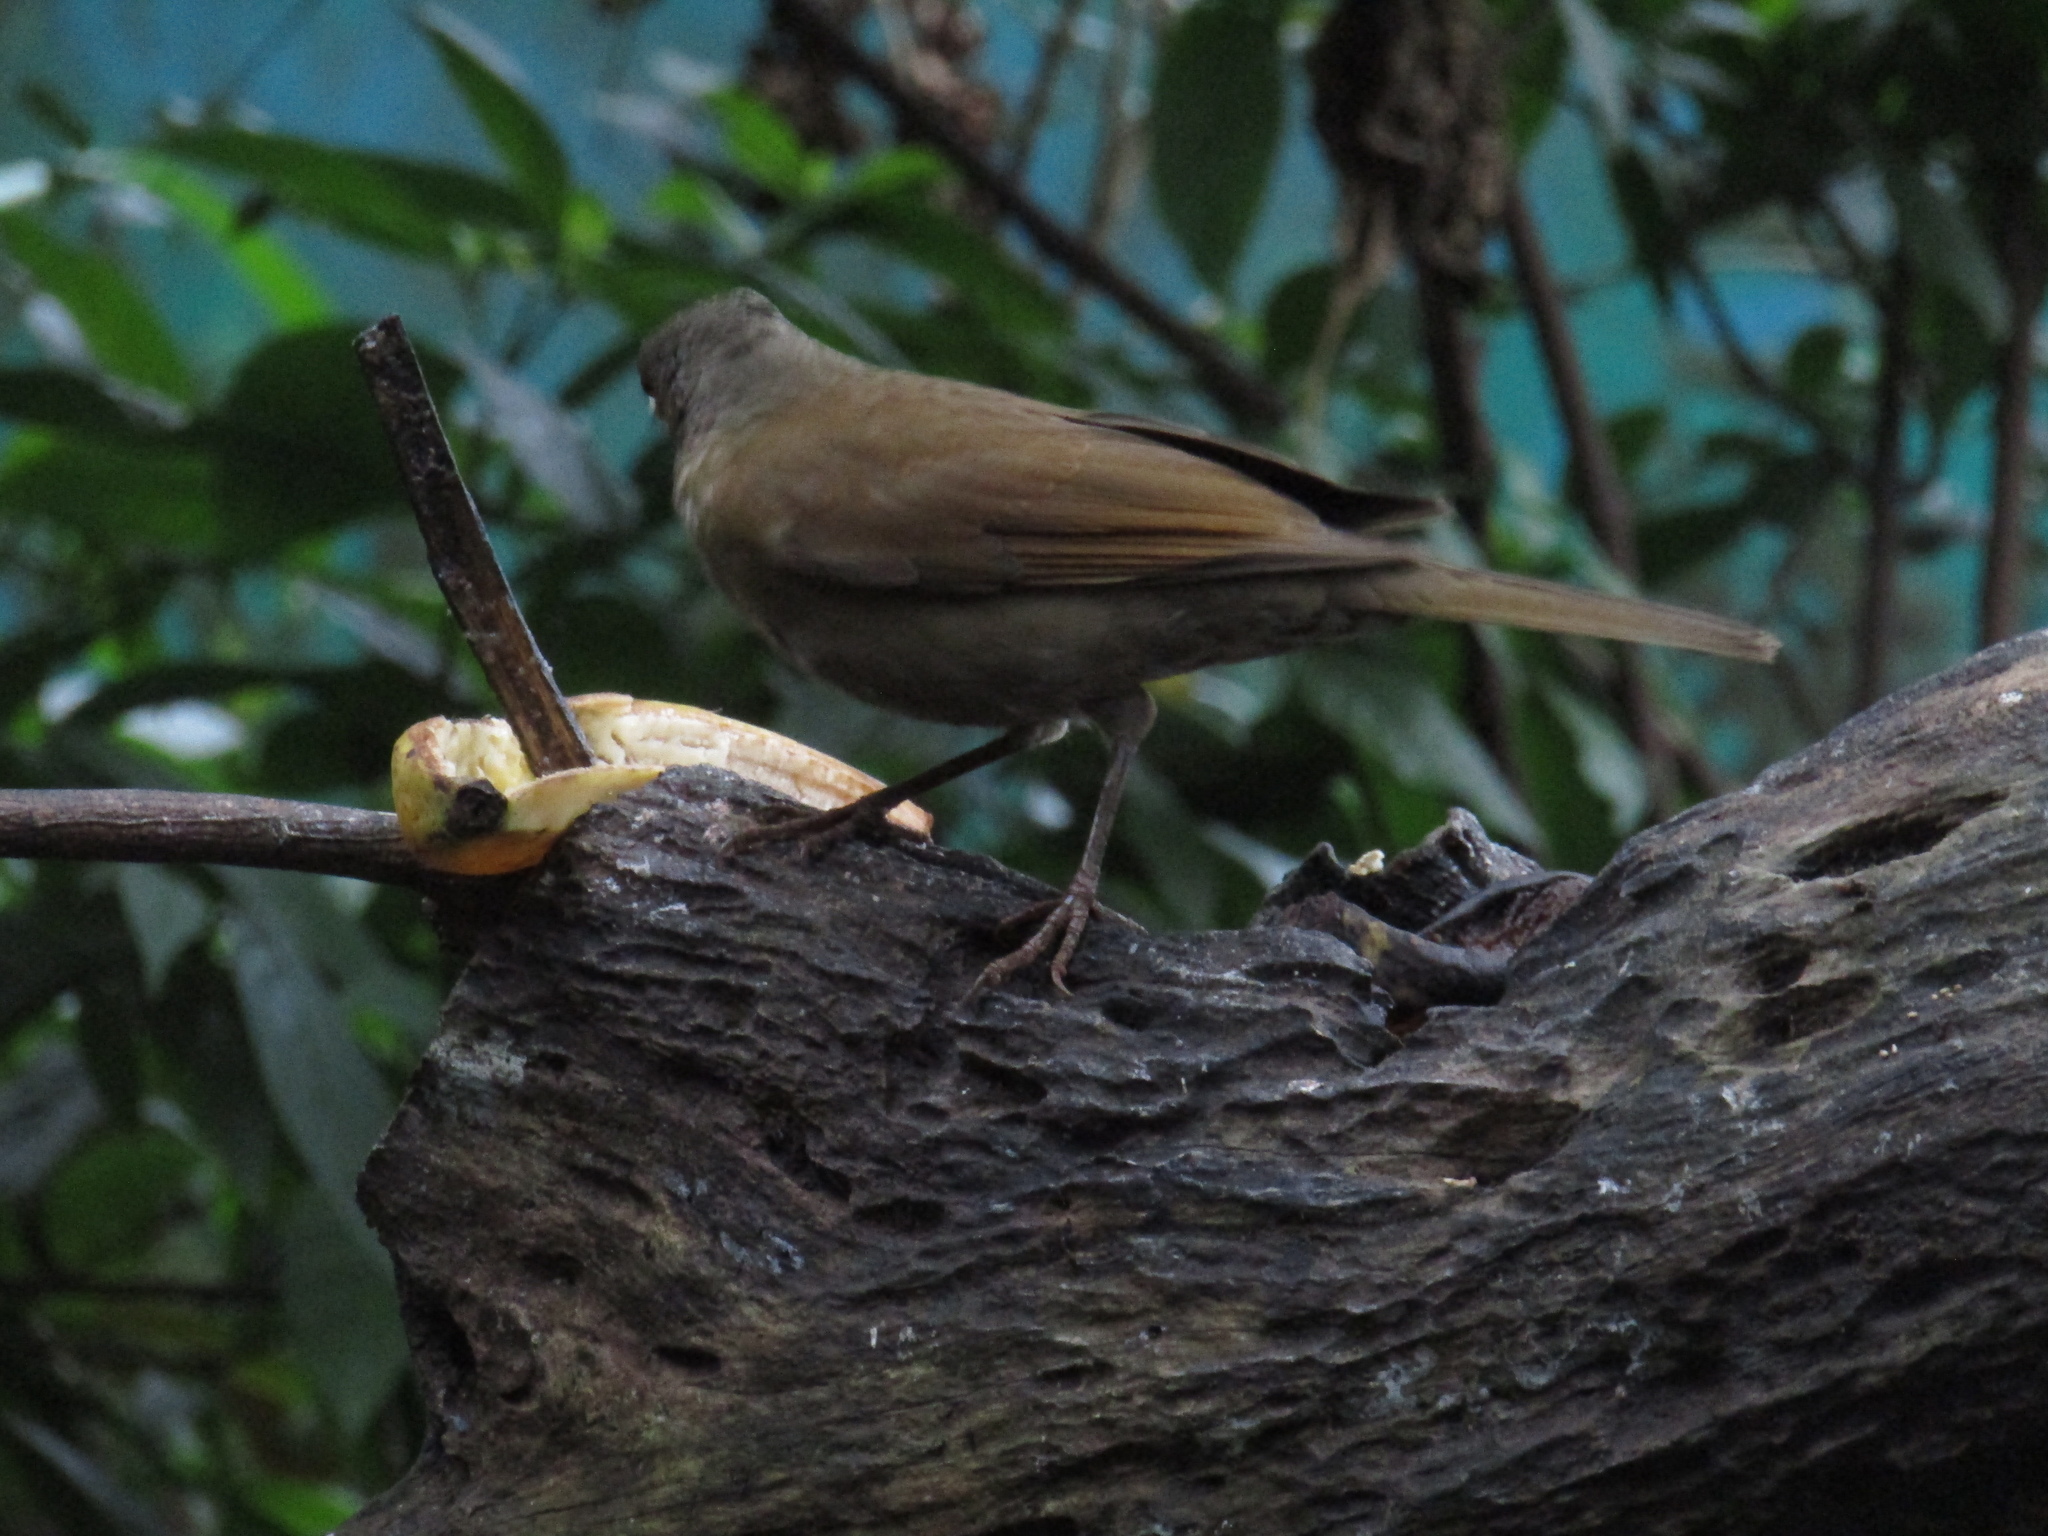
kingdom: Animalia
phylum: Chordata
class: Aves
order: Passeriformes
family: Turdidae
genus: Turdus
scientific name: Turdus leucomelas
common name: Pale-breasted thrush
